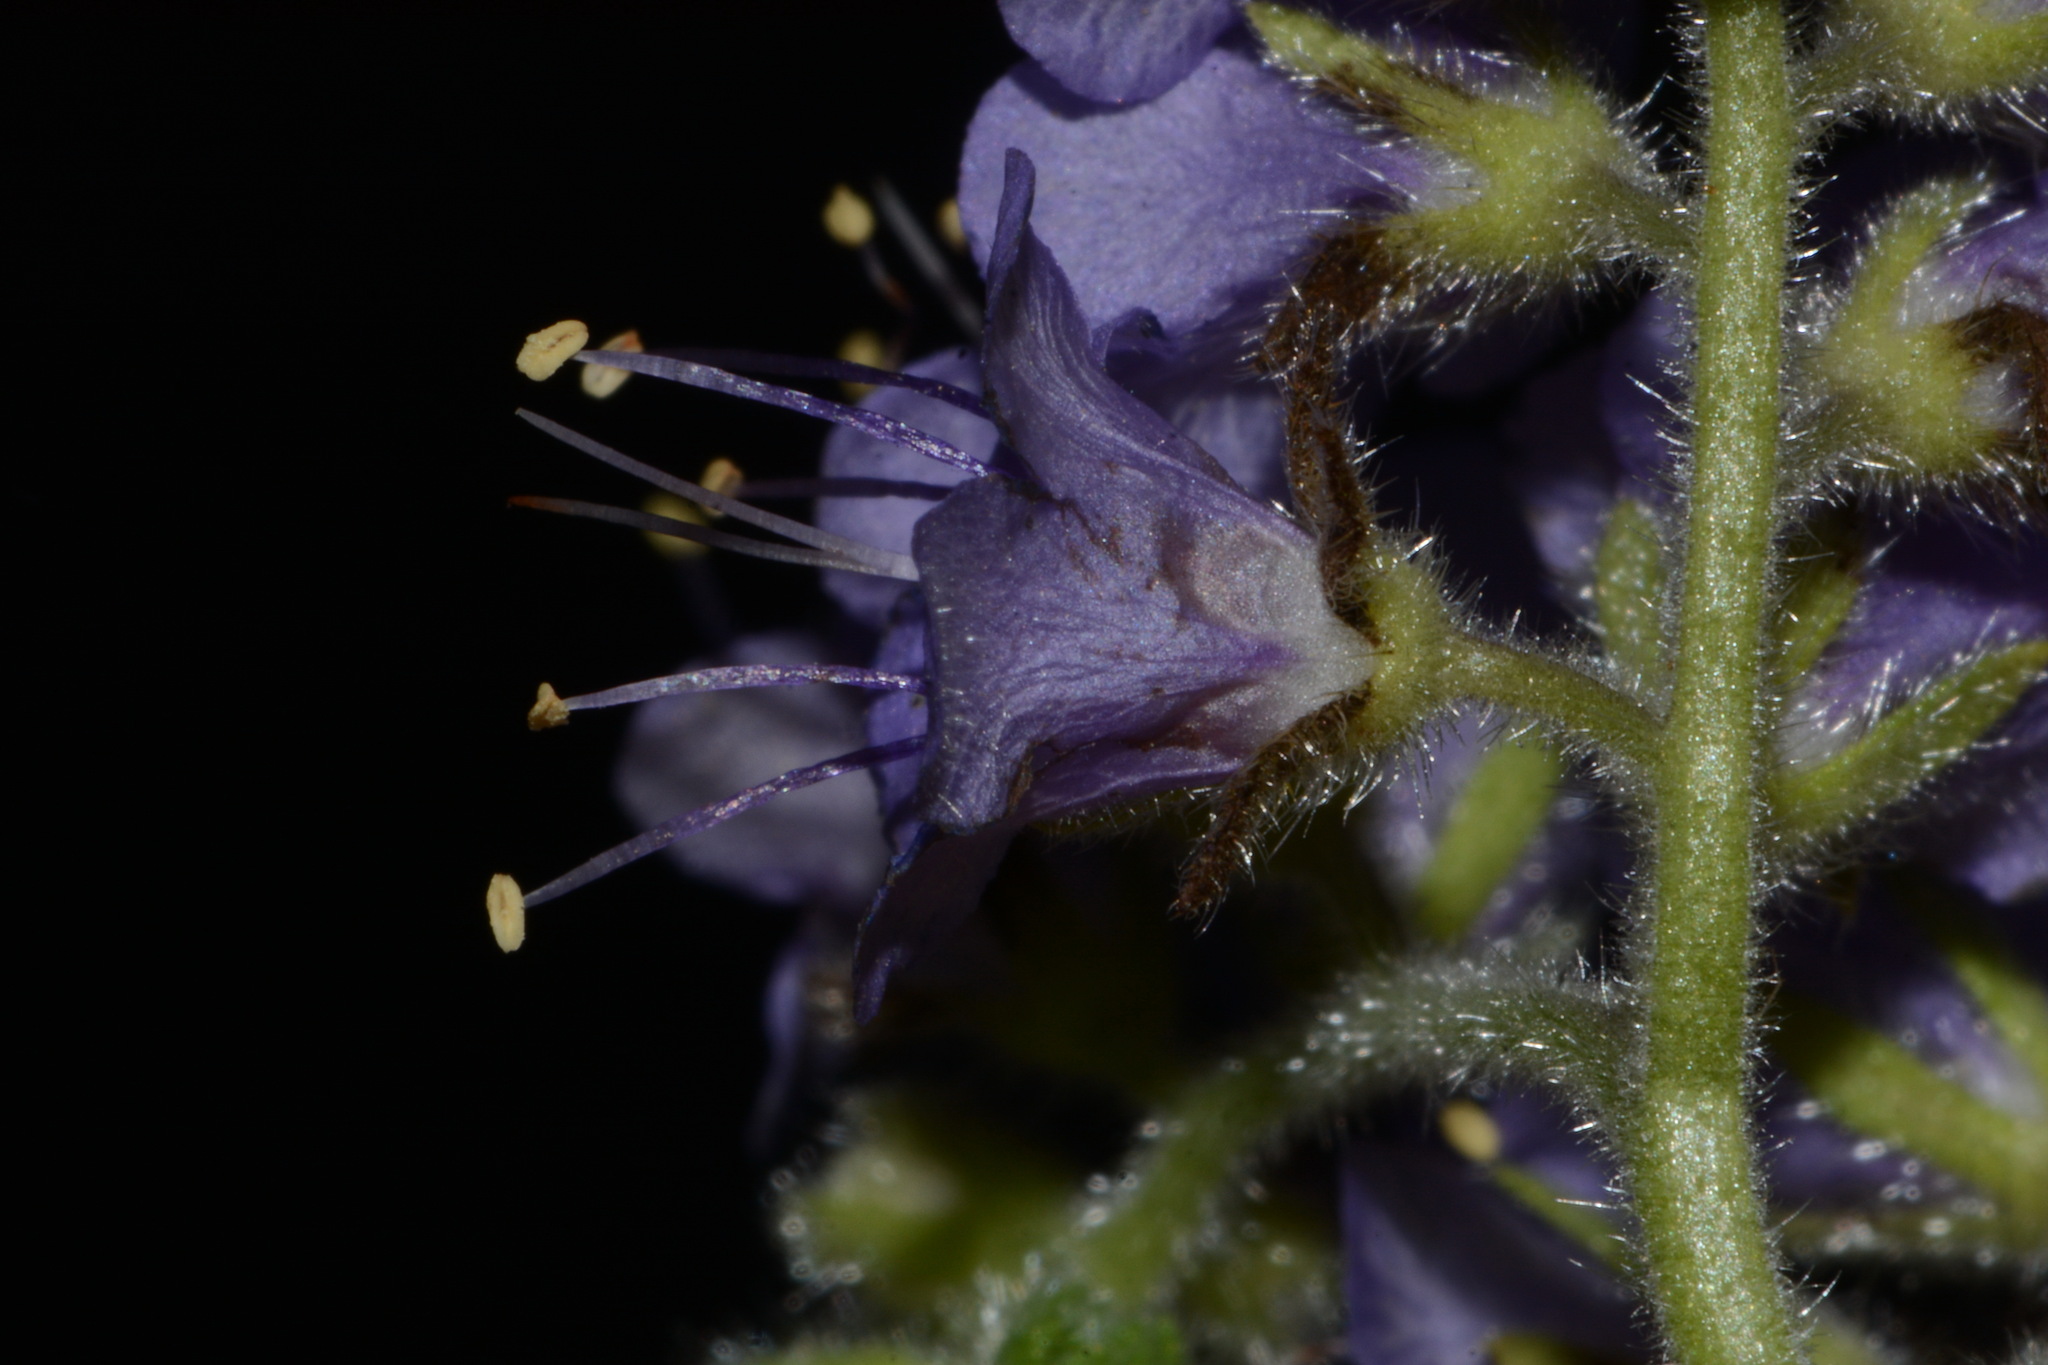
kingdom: Plantae
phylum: Tracheophyta
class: Magnoliopsida
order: Boraginales
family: Hydrophyllaceae
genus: Phacelia
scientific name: Phacelia congesta
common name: Blue curls
